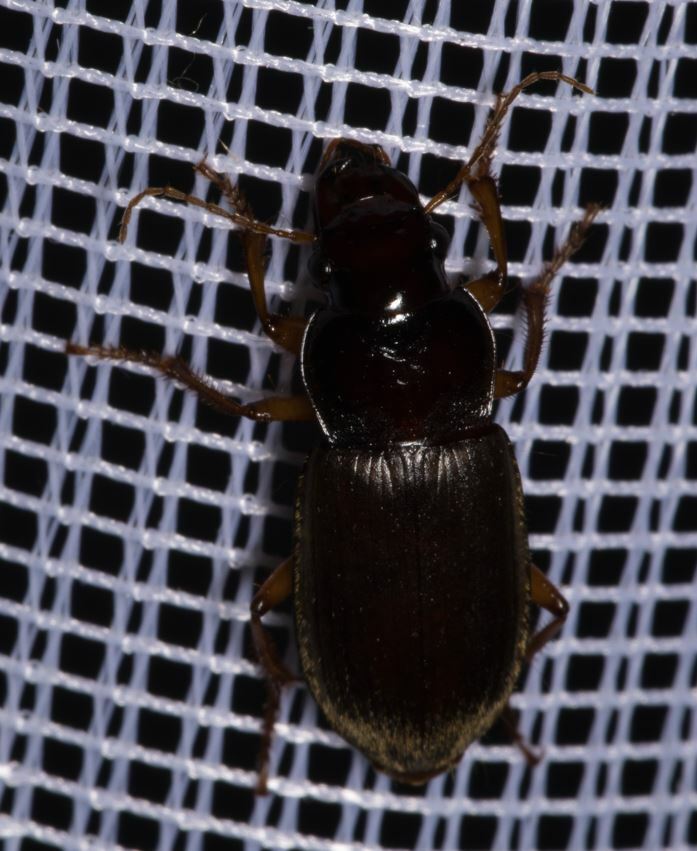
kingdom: Animalia
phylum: Arthropoda
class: Insecta
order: Coleoptera
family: Carabidae
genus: Harpalus
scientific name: Harpalus rufipes
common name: Strawberry harp ground beetle
